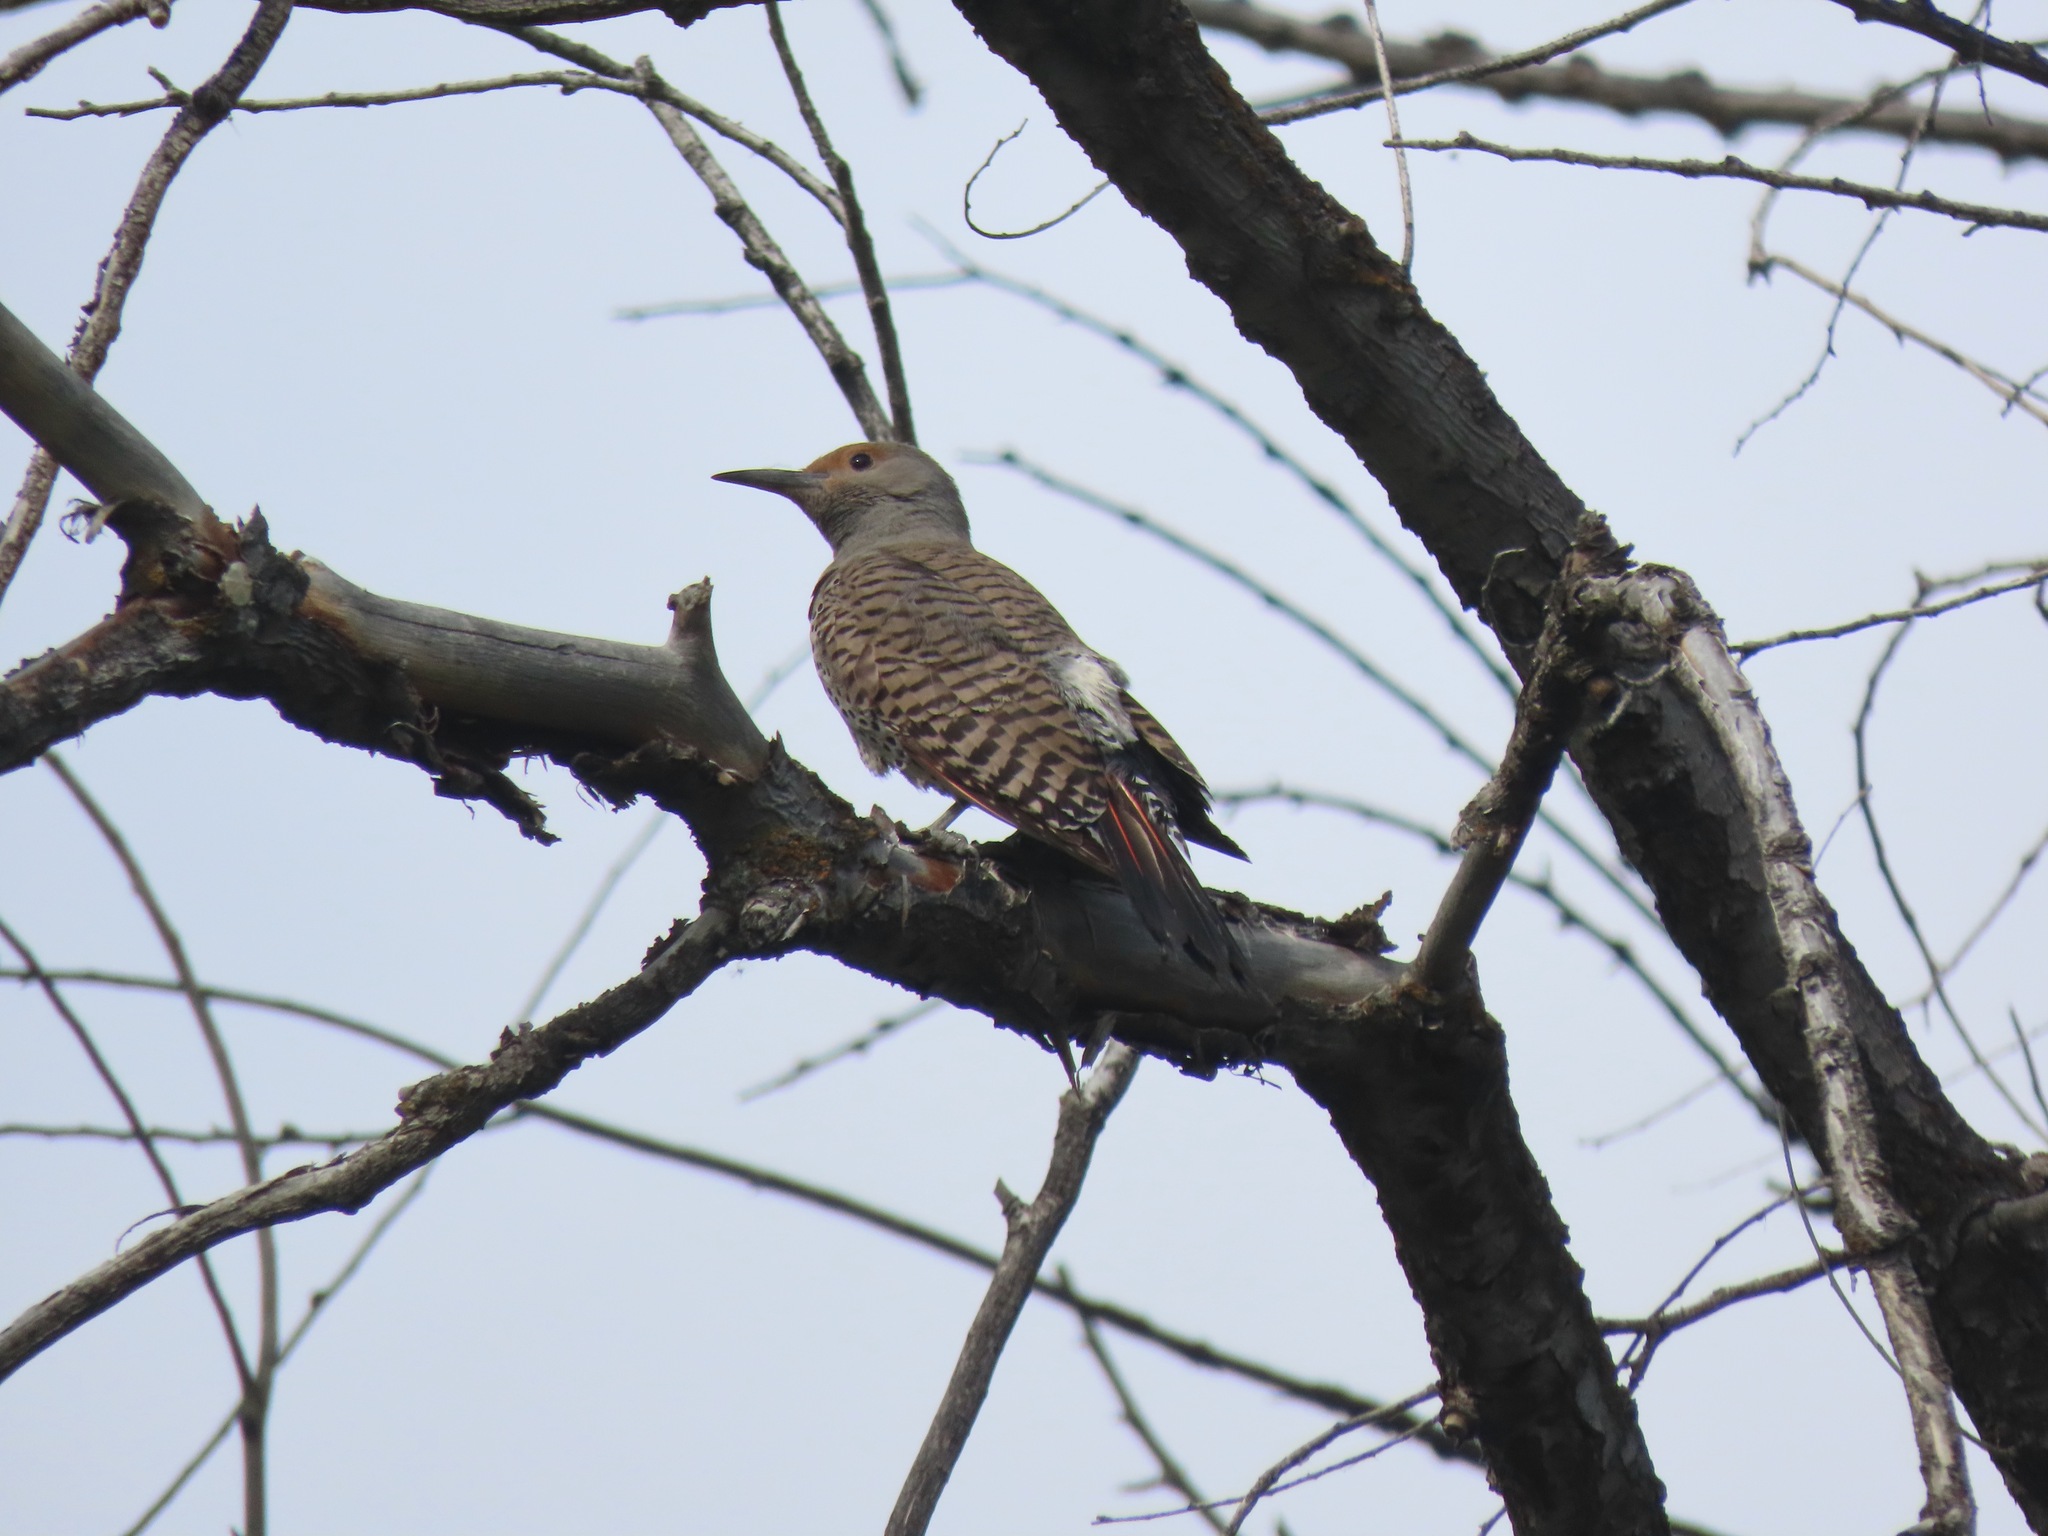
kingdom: Animalia
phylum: Chordata
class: Aves
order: Piciformes
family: Picidae
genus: Colaptes
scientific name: Colaptes auratus
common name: Northern flicker
